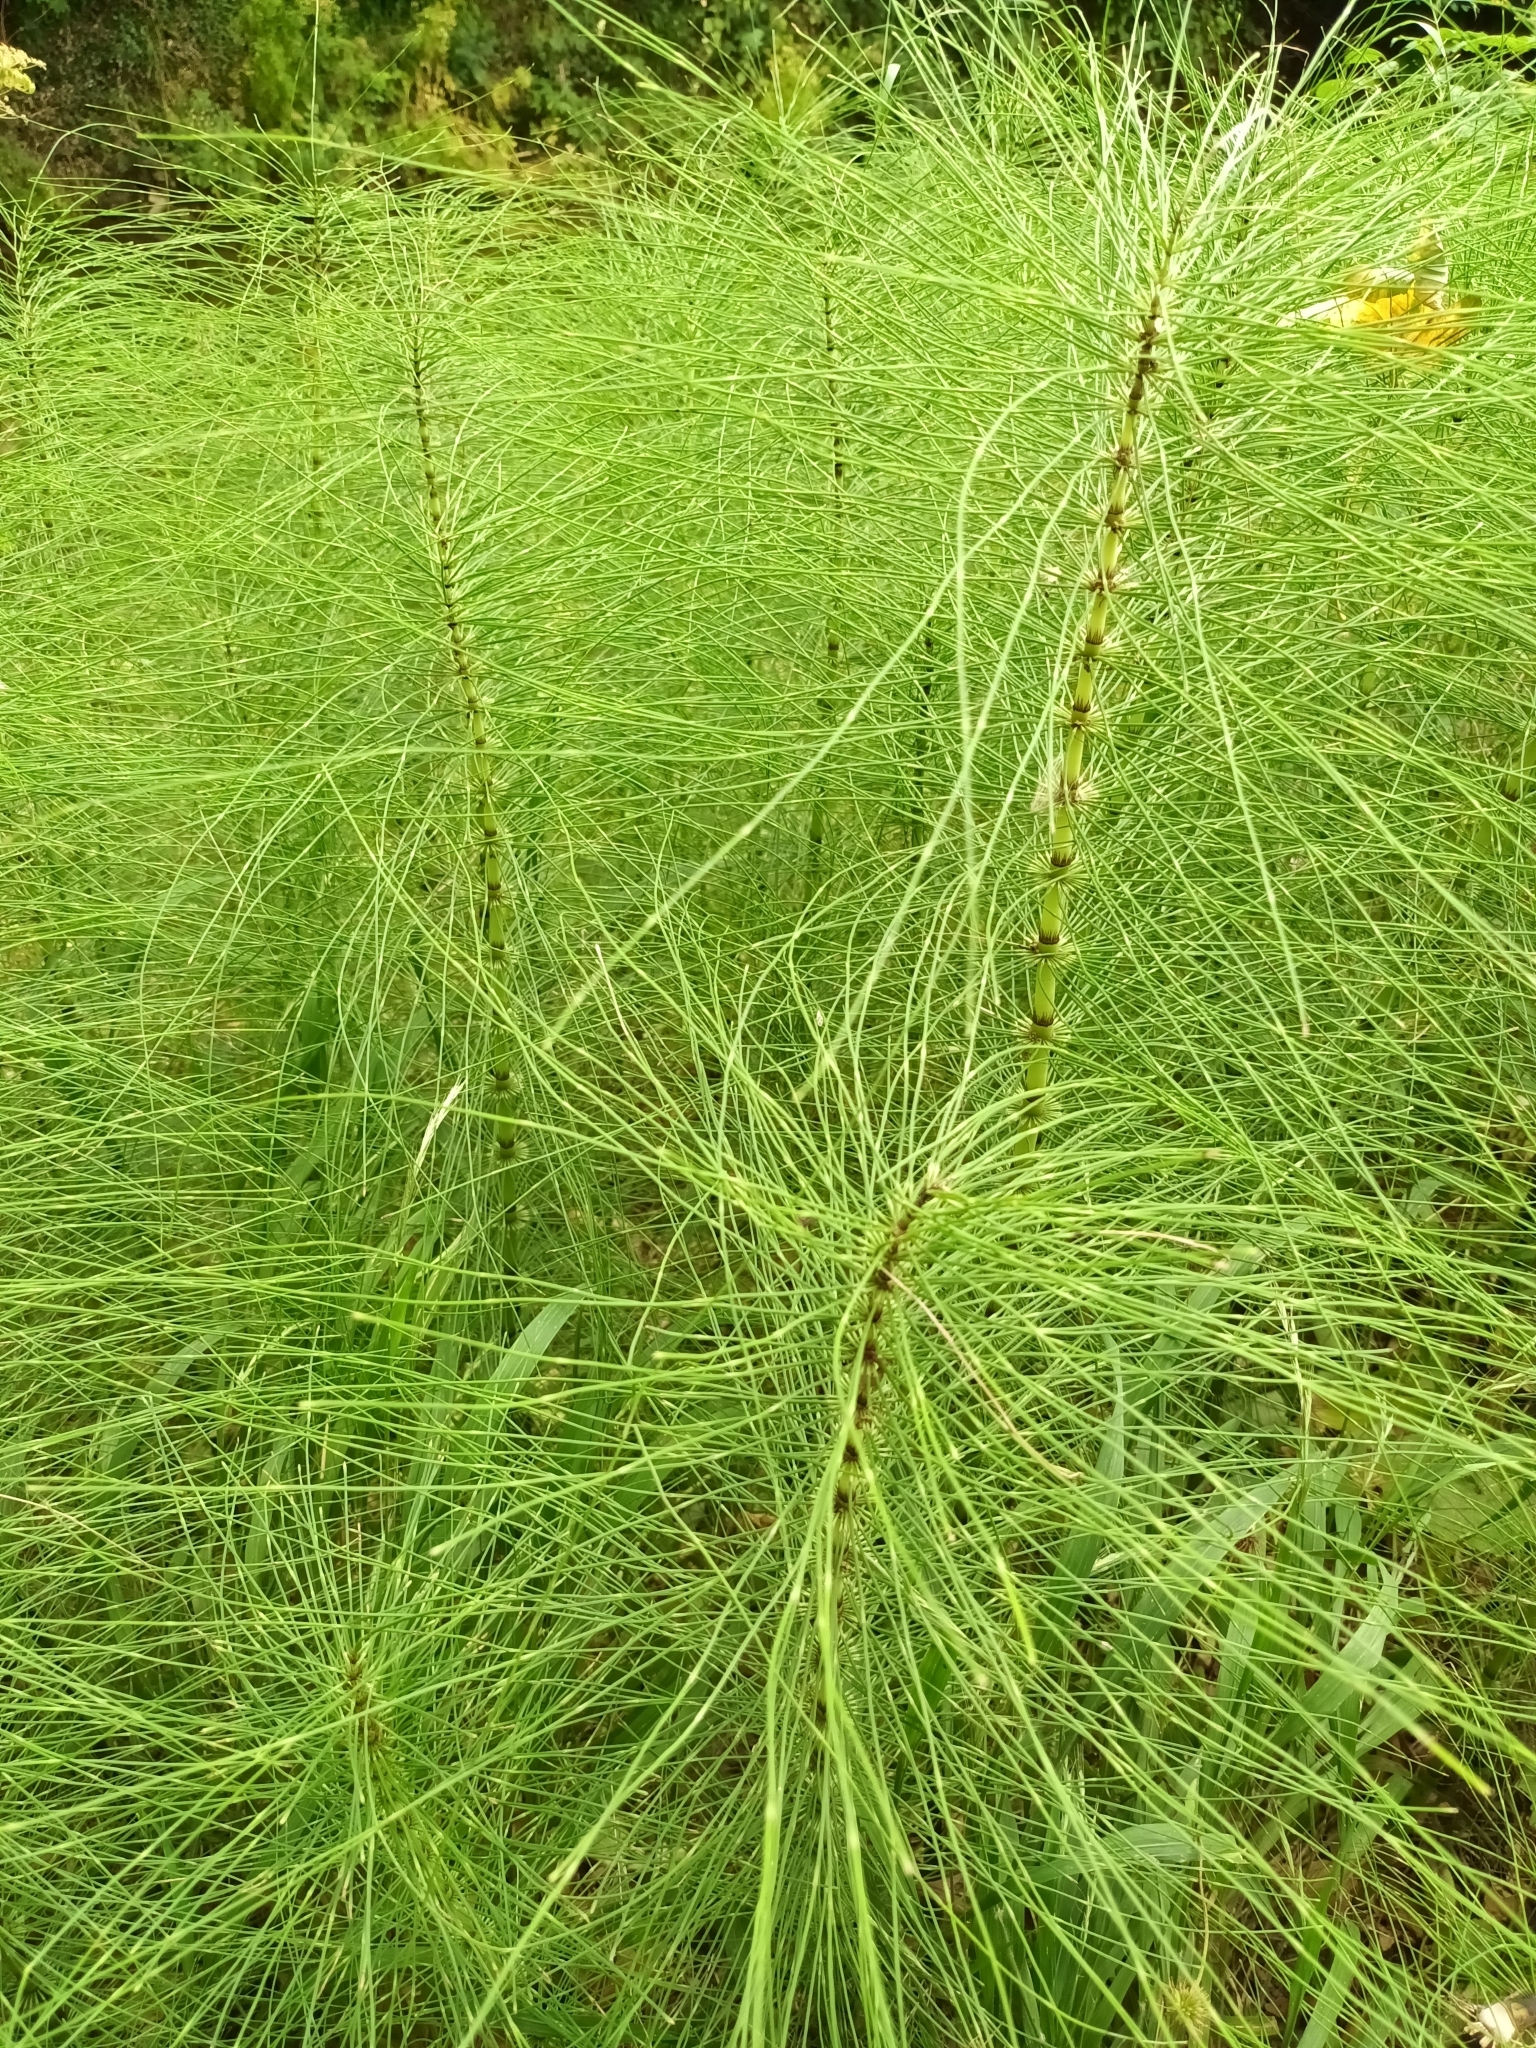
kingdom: Plantae
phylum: Tracheophyta
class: Polypodiopsida
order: Equisetales
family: Equisetaceae
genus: Equisetum
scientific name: Equisetum telmateia
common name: Great horsetail
